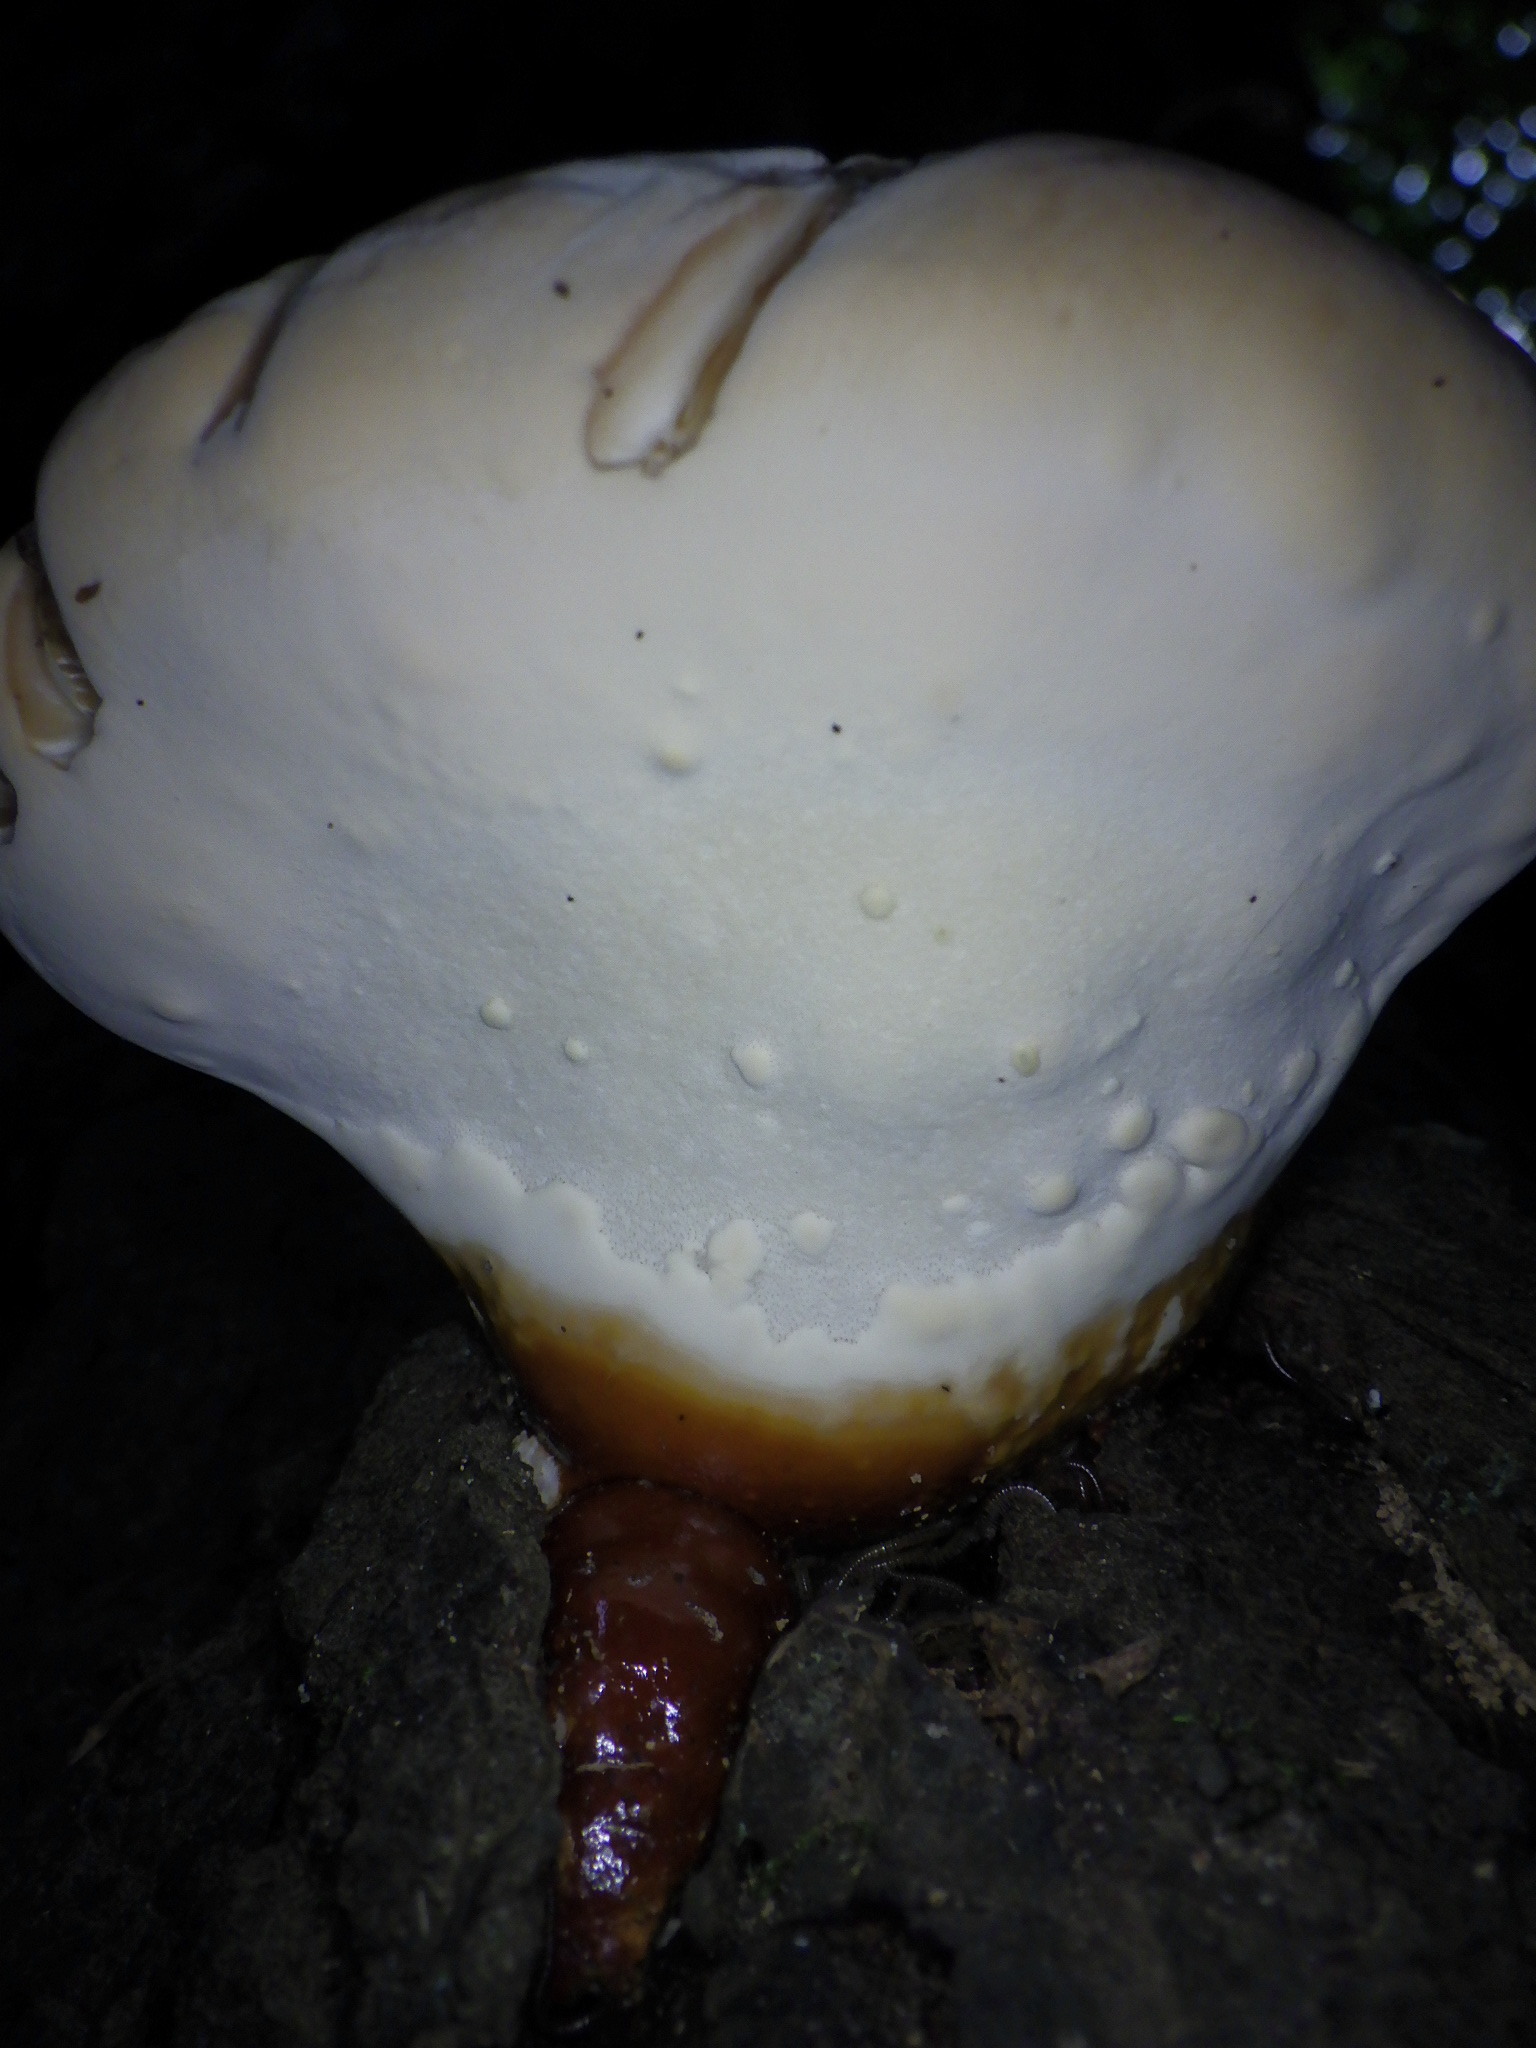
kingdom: Fungi
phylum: Basidiomycota
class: Agaricomycetes
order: Polyporales
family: Polyporaceae
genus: Ganoderma
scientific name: Ganoderma tsugae
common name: Hemlock varnish shelf
